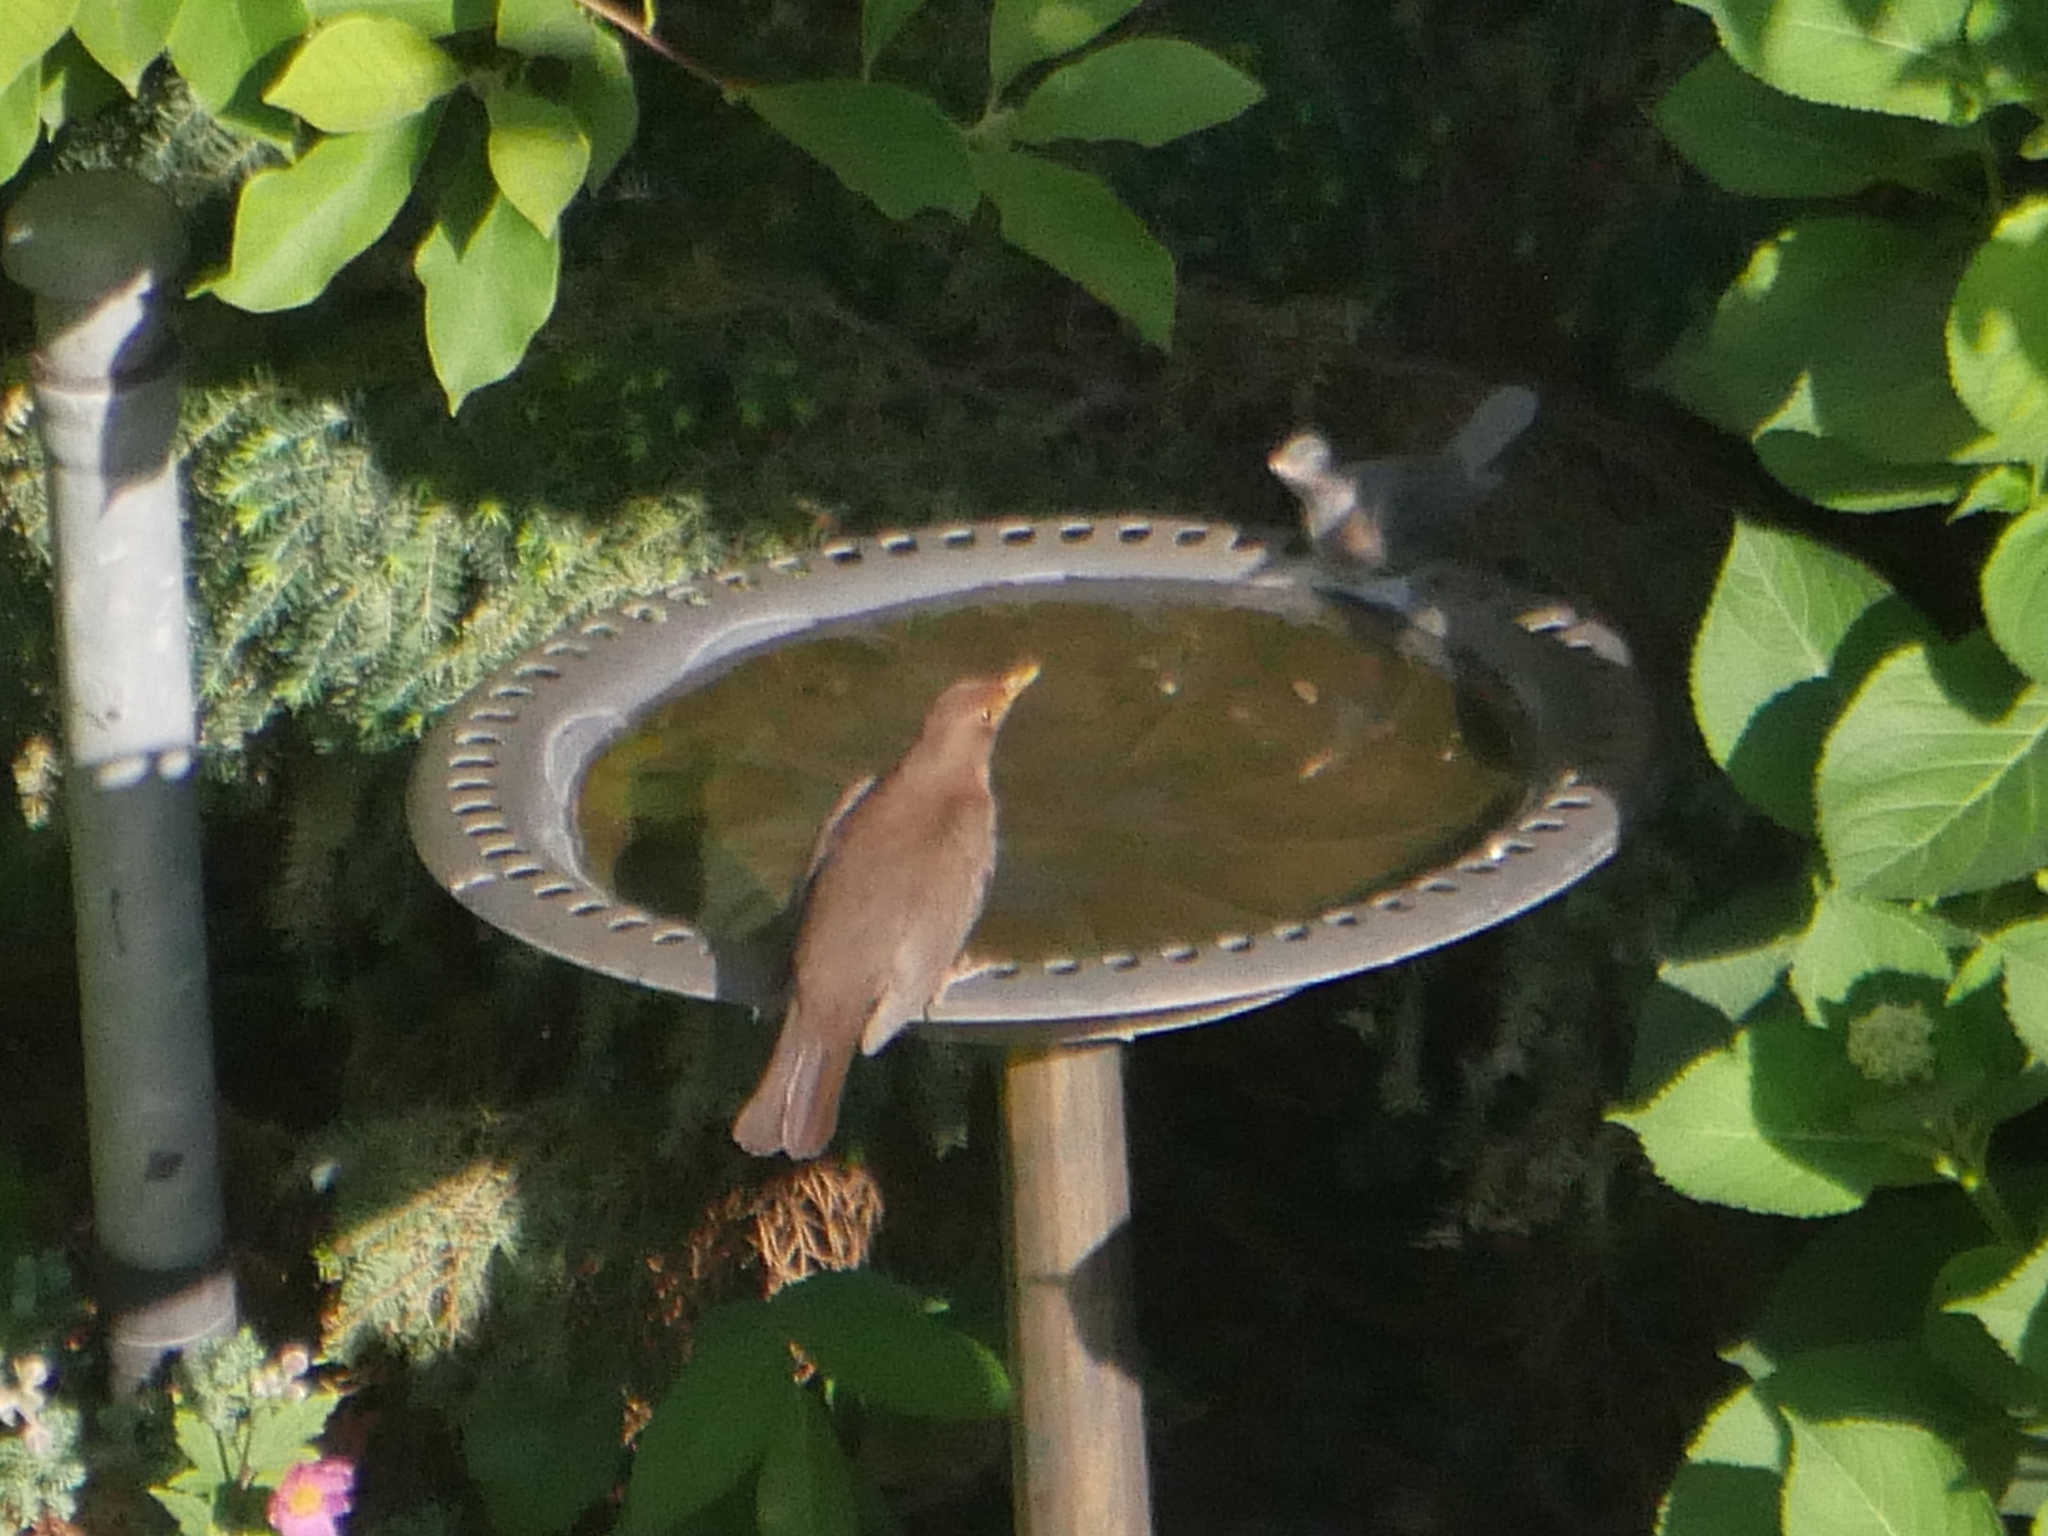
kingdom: Animalia
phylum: Chordata
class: Aves
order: Passeriformes
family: Turdidae
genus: Turdus
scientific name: Turdus merula
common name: Common blackbird
